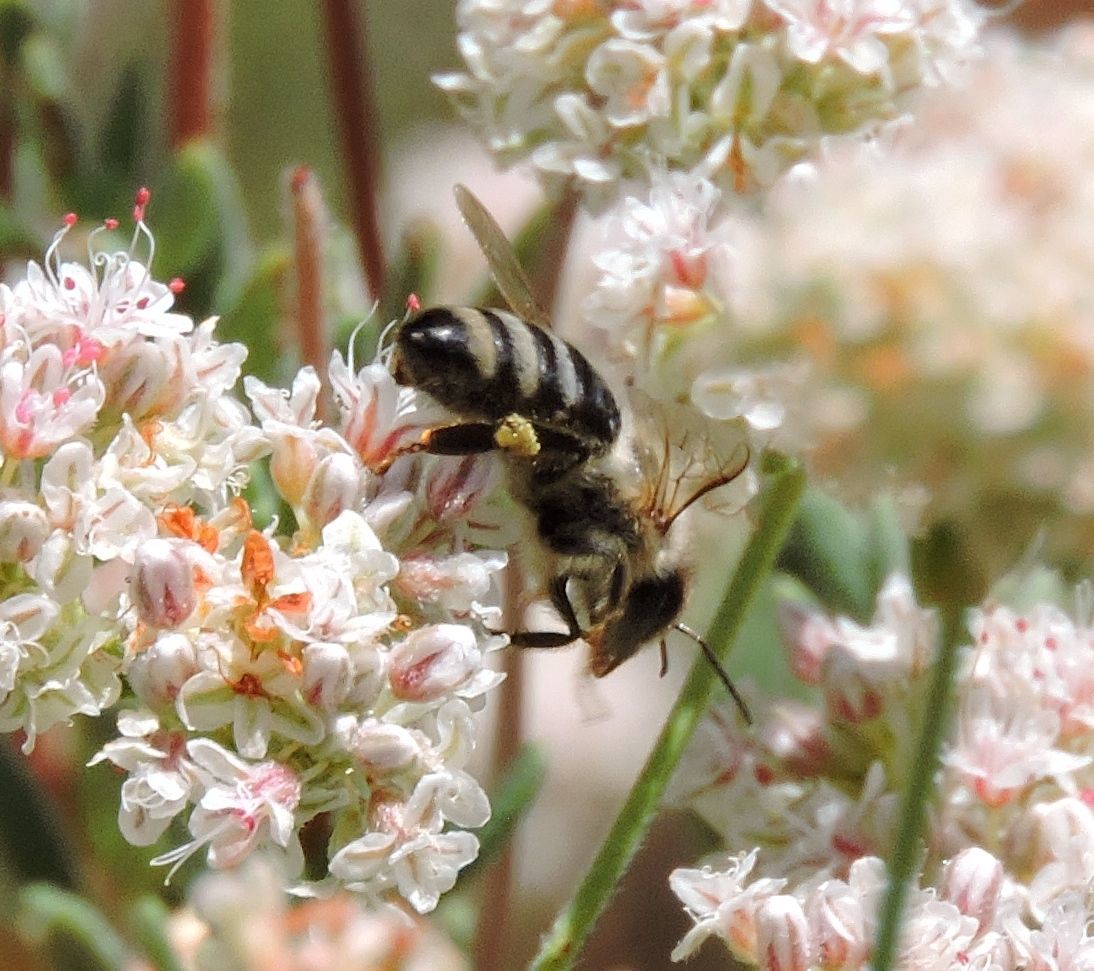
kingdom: Animalia
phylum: Arthropoda
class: Insecta
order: Hymenoptera
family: Apidae
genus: Apis
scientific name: Apis mellifera
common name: Honey bee
